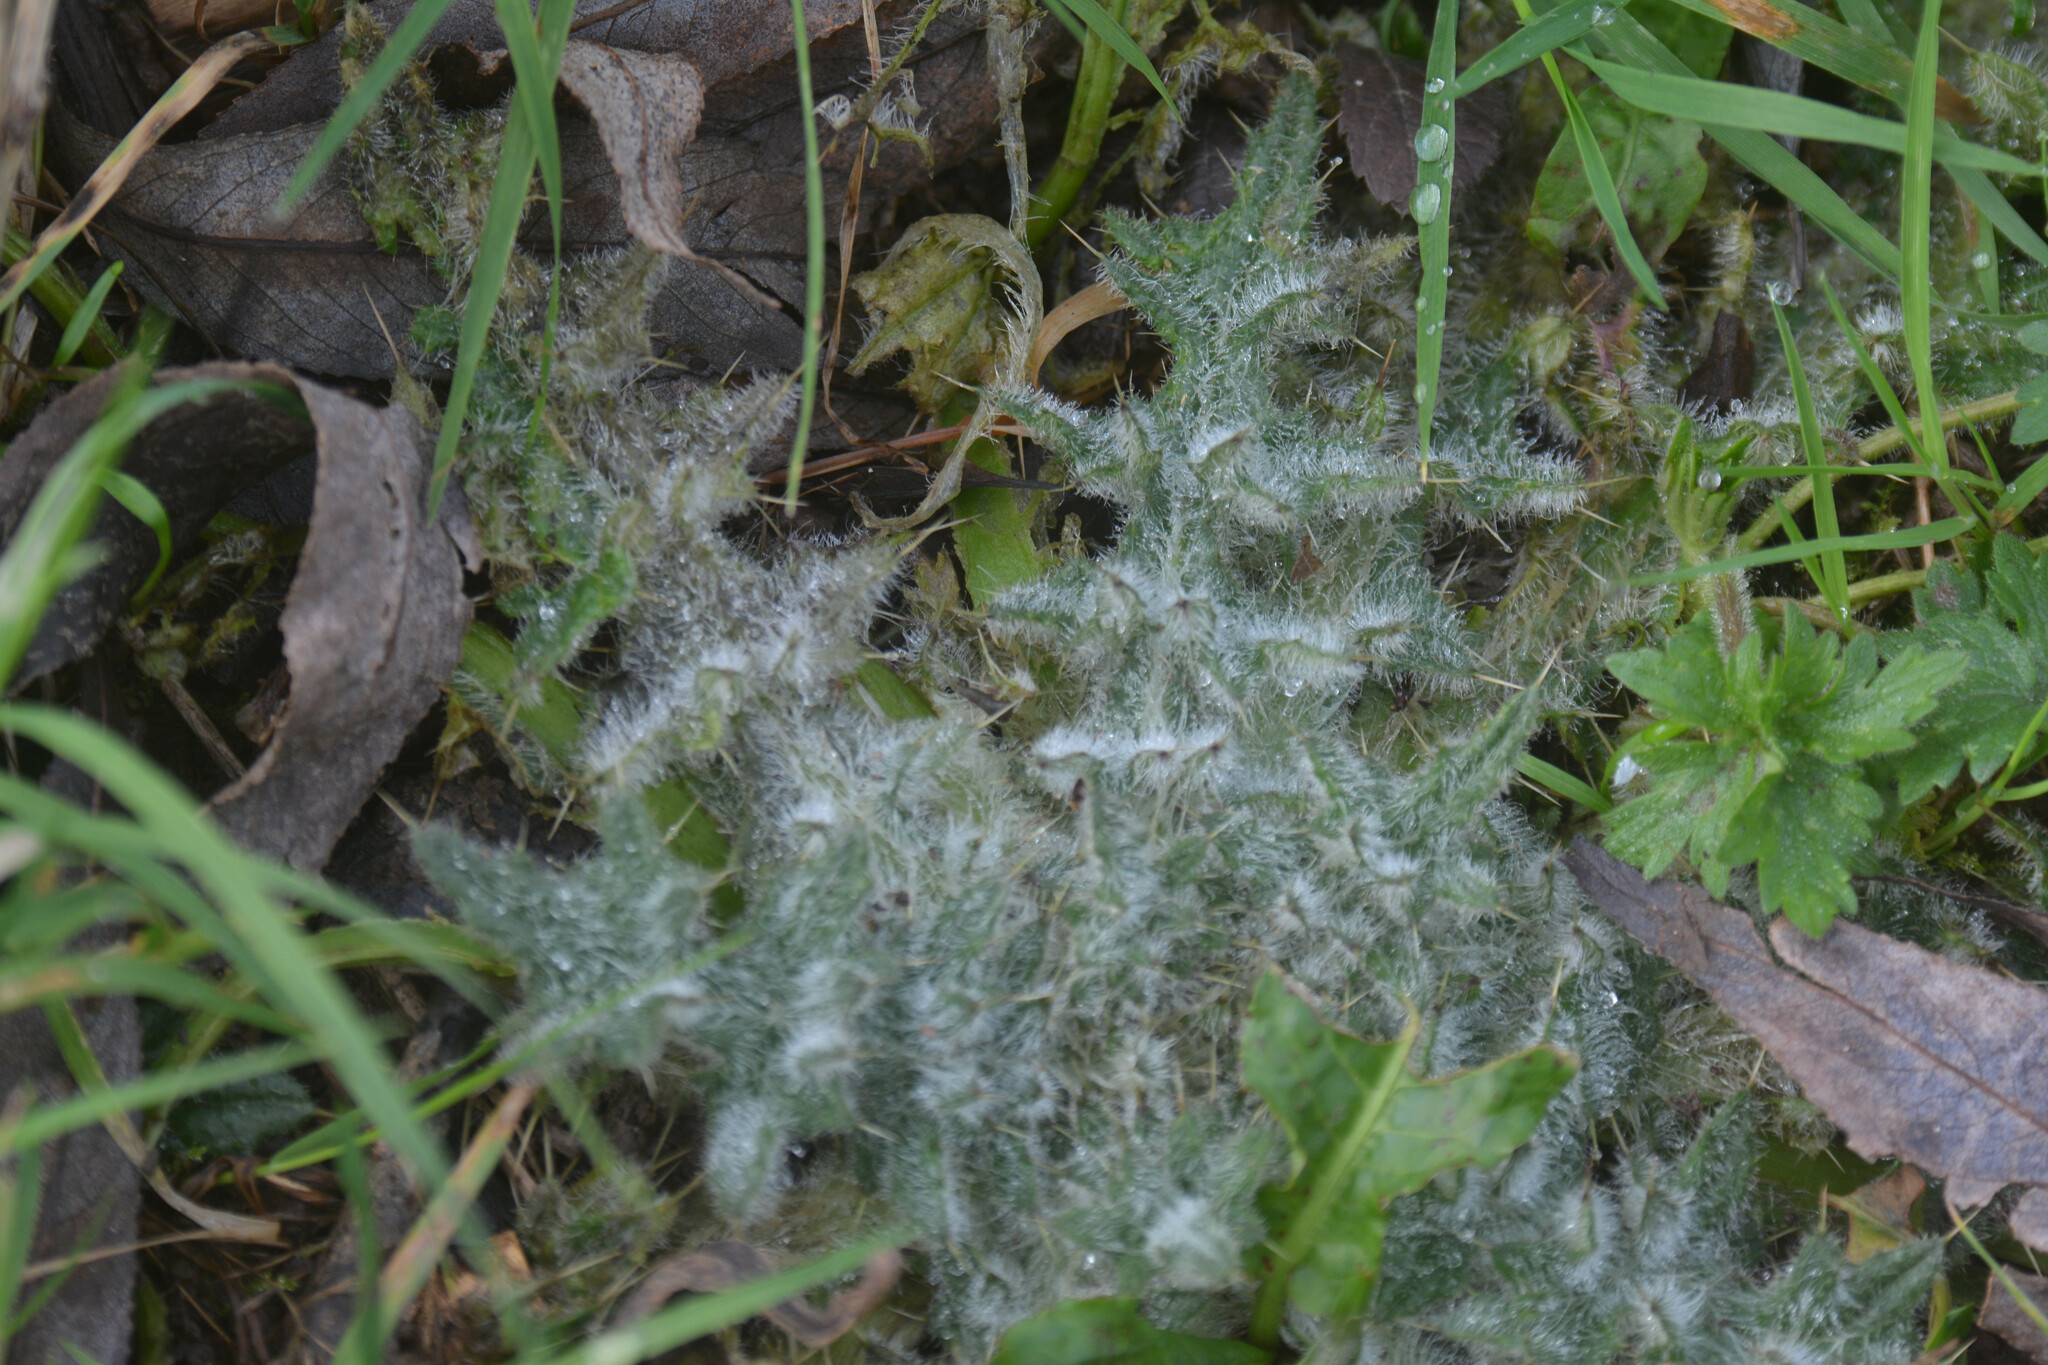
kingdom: Plantae
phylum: Tracheophyta
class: Magnoliopsida
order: Asterales
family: Asteraceae
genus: Cirsium
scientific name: Cirsium vulgare
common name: Bull thistle
